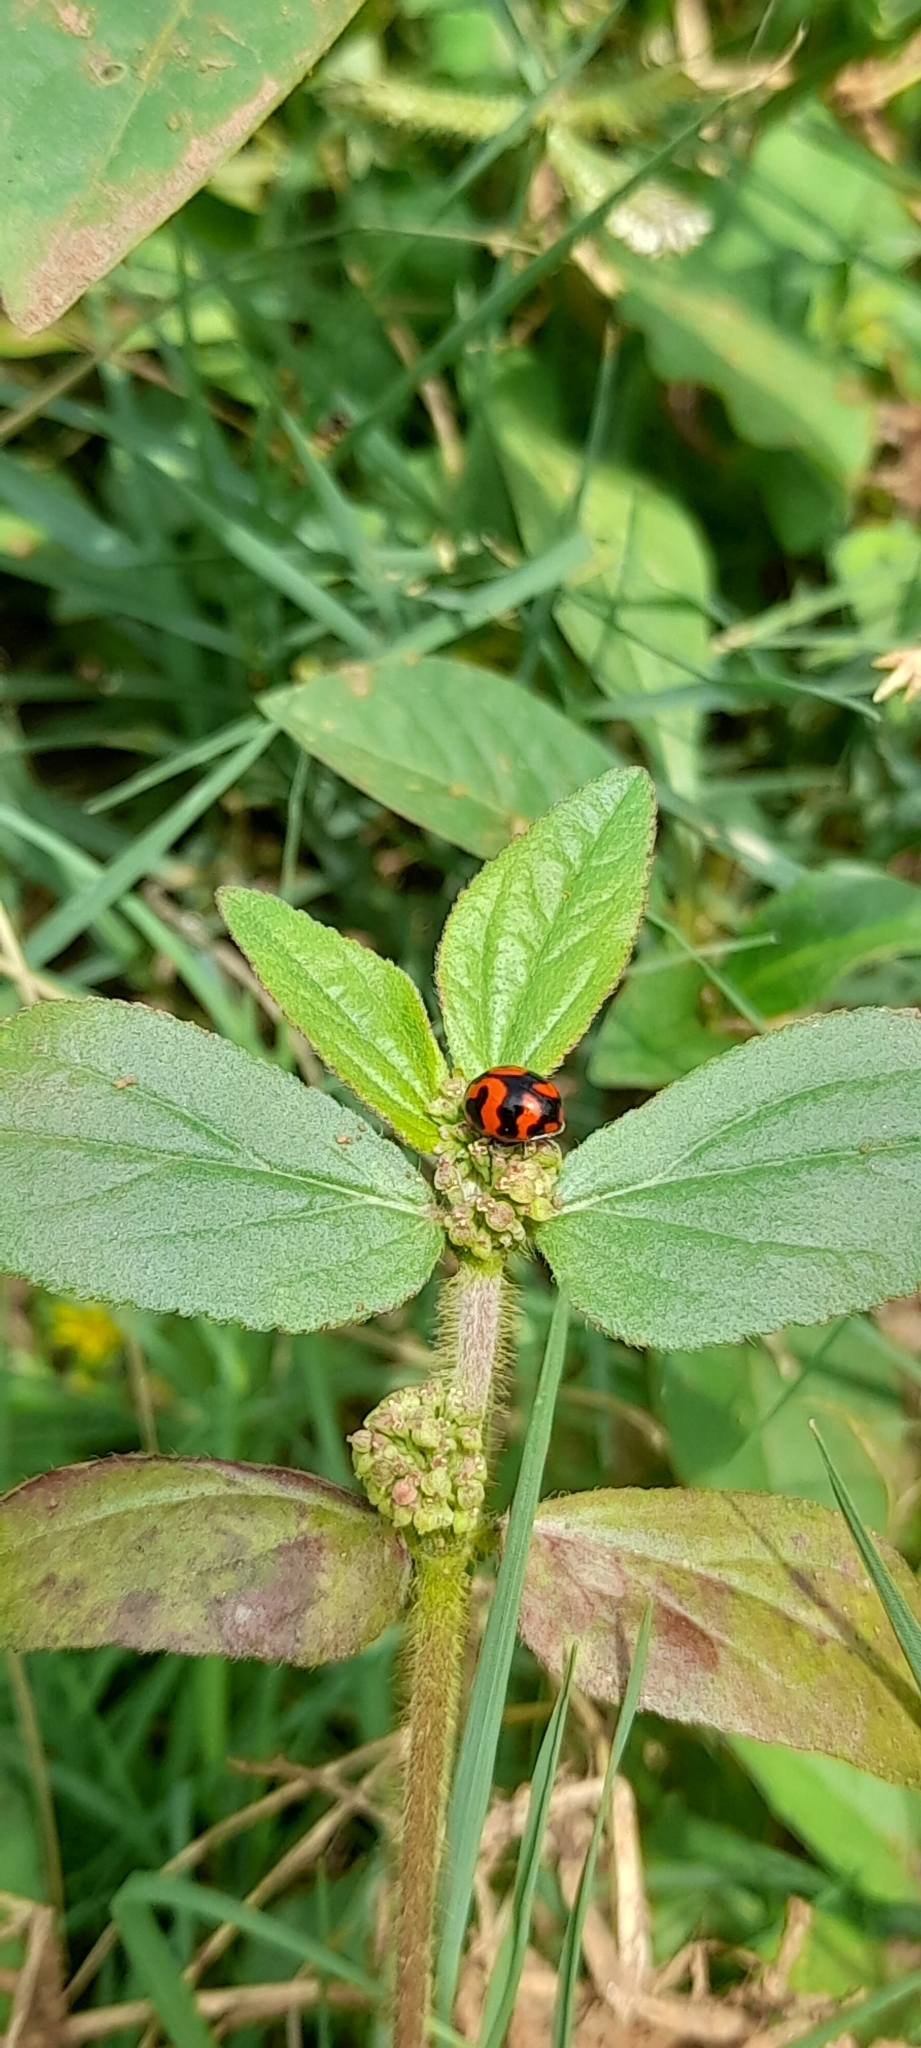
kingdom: Animalia
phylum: Arthropoda
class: Insecta
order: Coleoptera
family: Coccinellidae
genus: Coccinella
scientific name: Coccinella transversalis
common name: Transverse lady beetle
